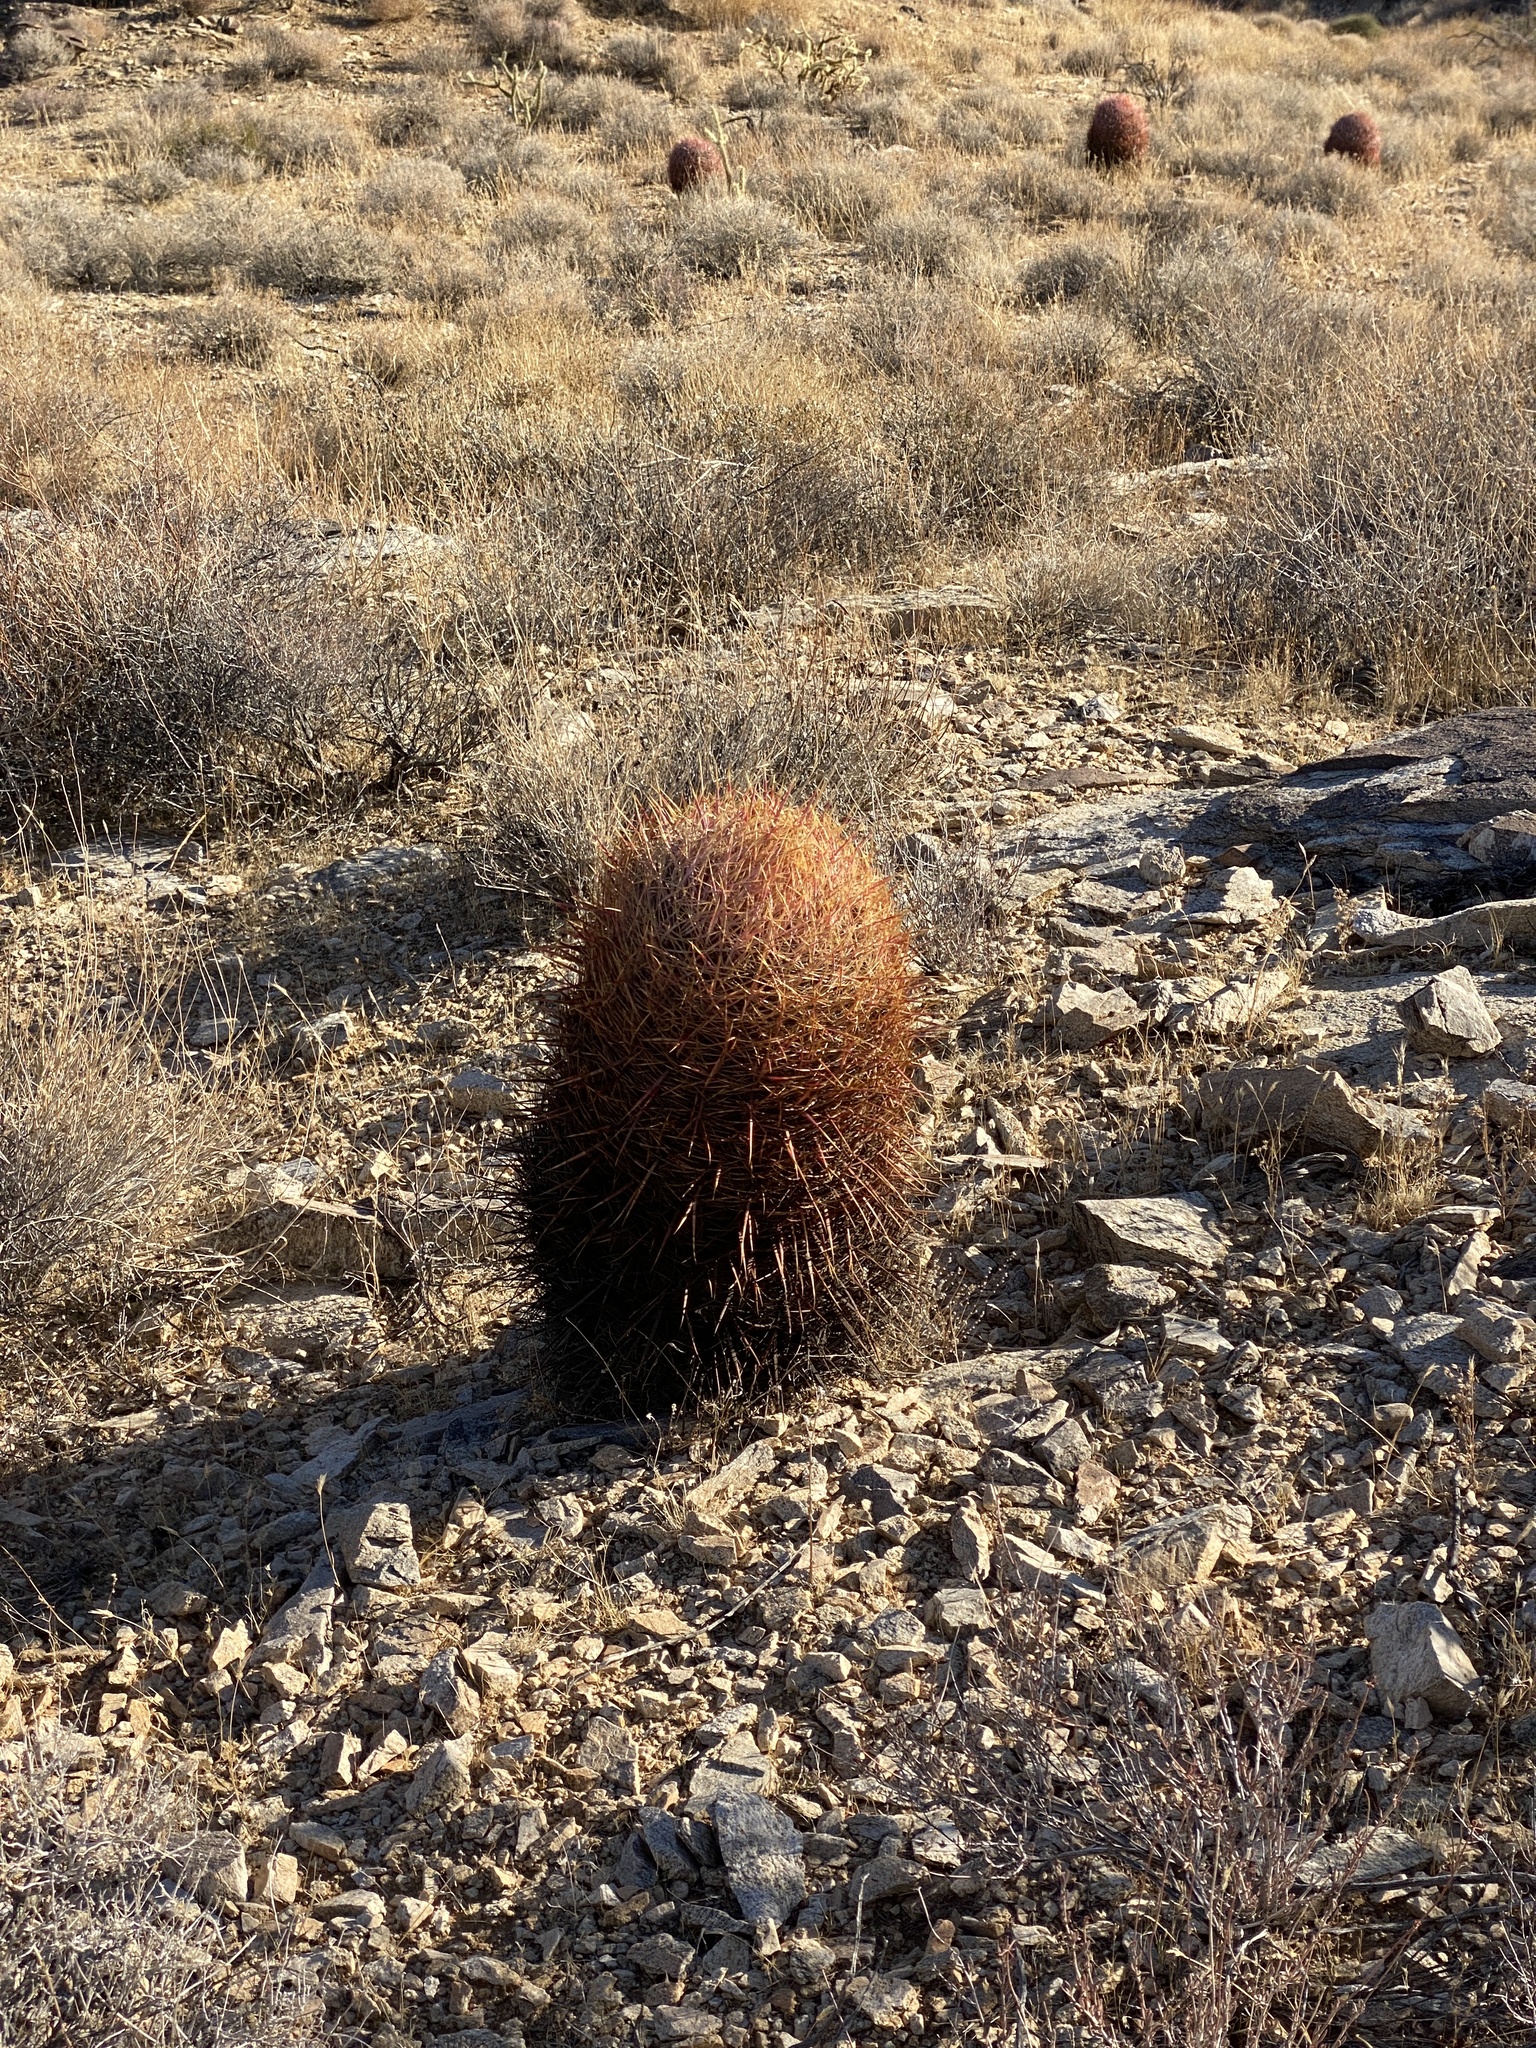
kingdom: Plantae
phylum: Tracheophyta
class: Magnoliopsida
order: Caryophyllales
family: Cactaceae
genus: Ferocactus
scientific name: Ferocactus cylindraceus
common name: California barrel cactus
